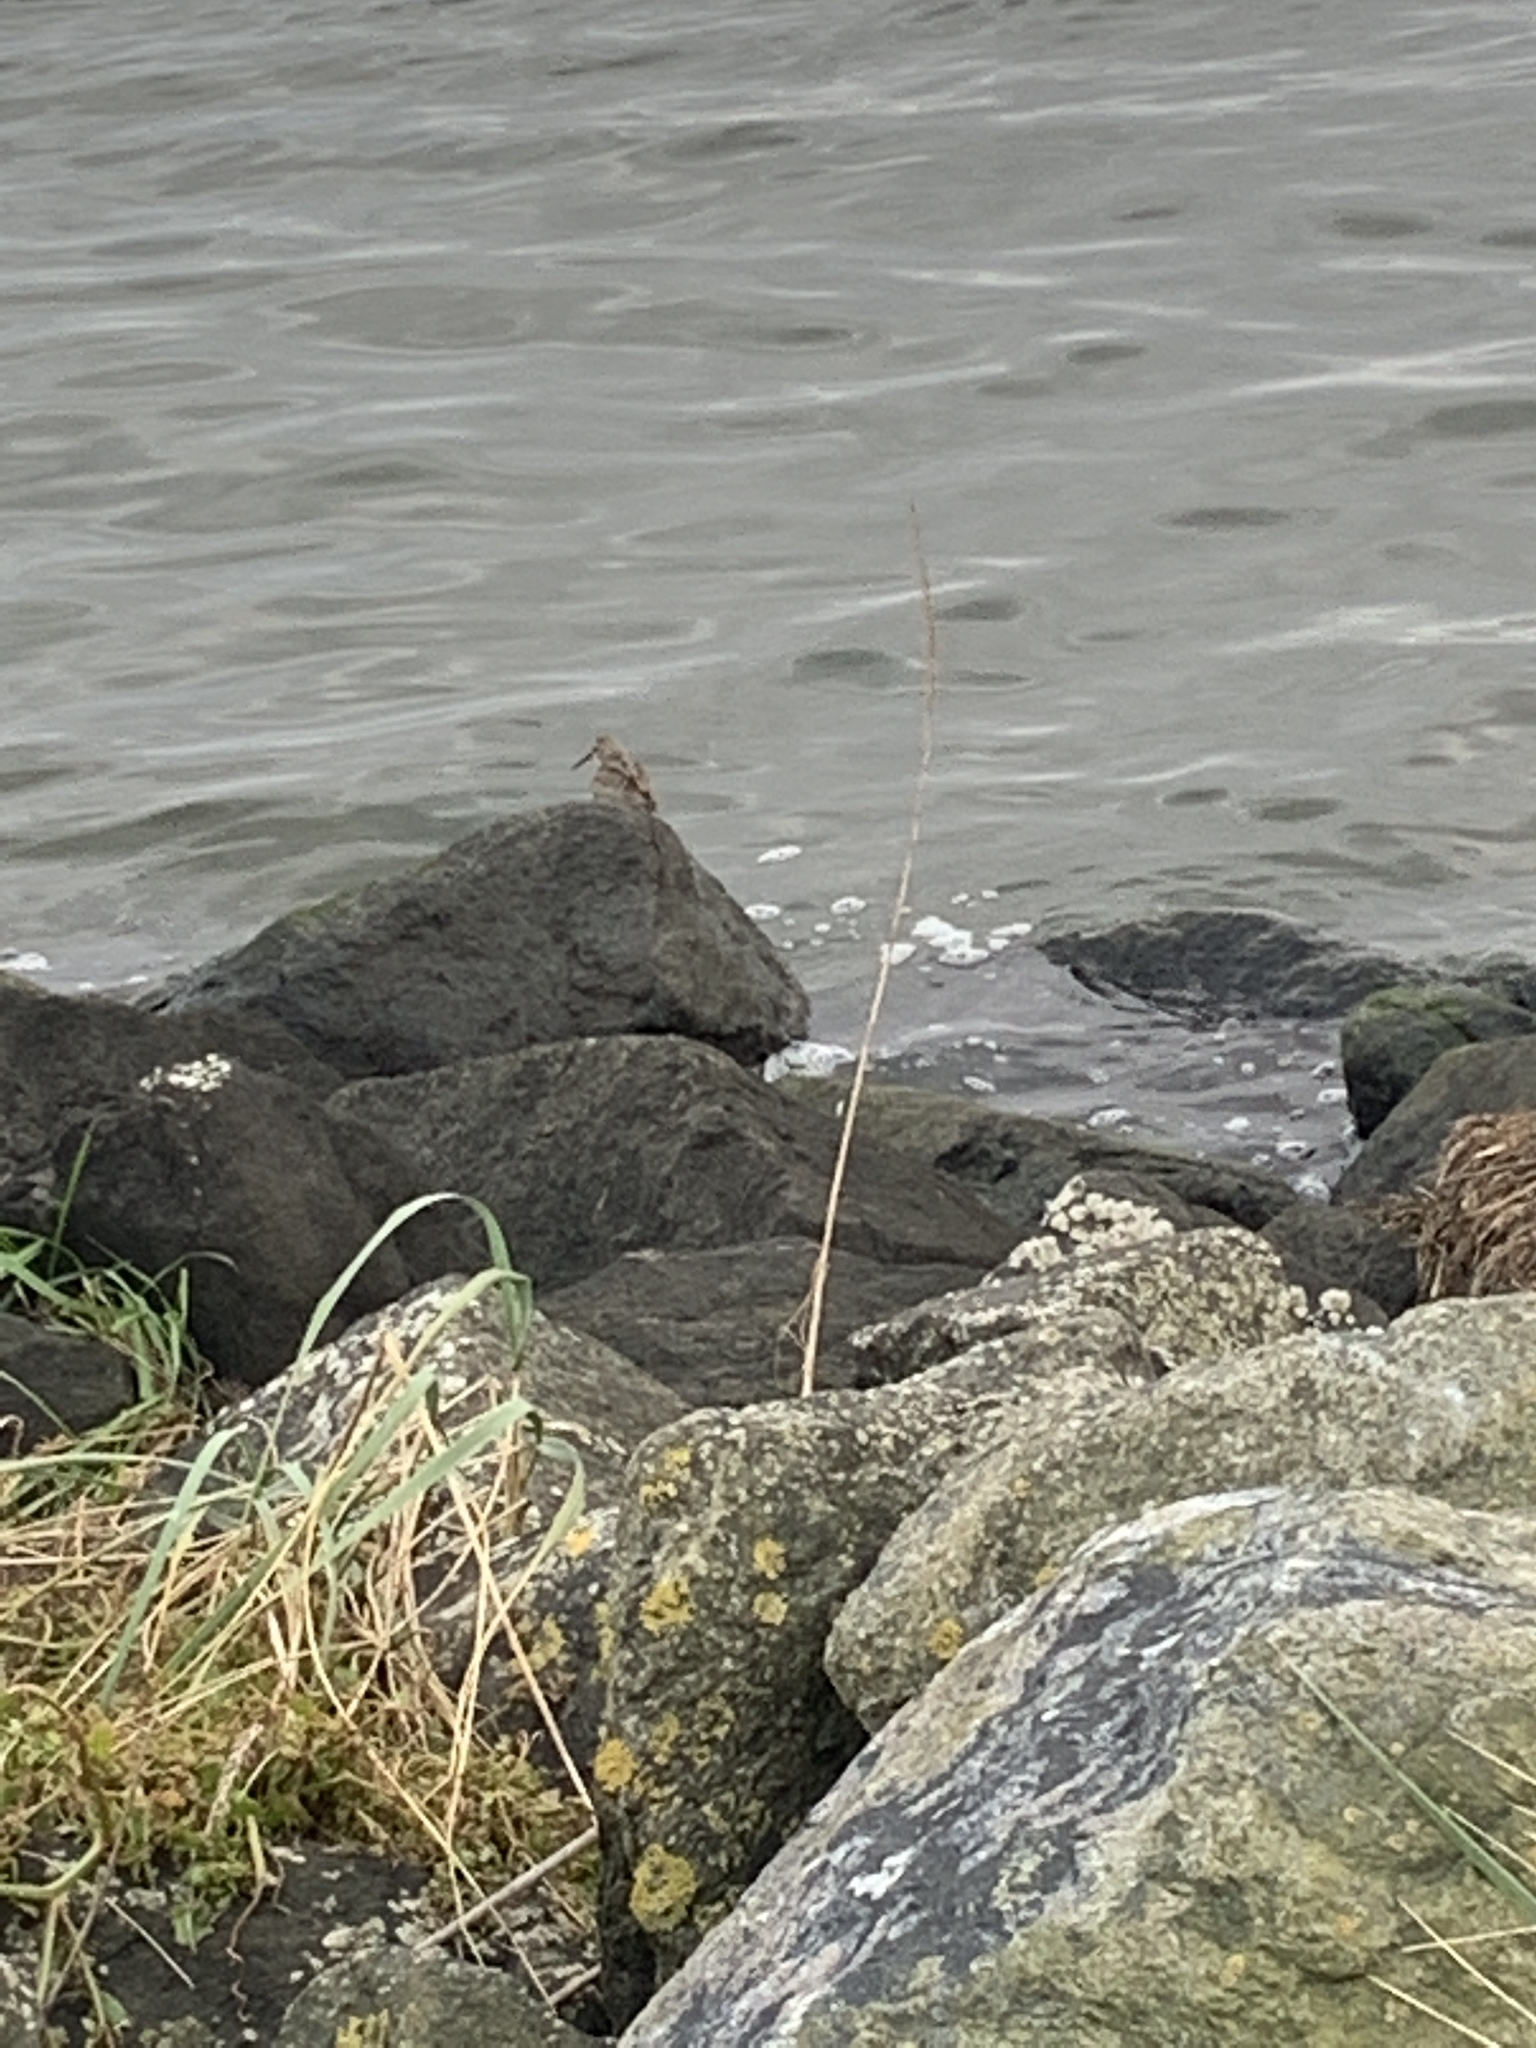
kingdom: Animalia
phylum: Chordata
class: Aves
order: Charadriiformes
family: Scolopacidae
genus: Calidris
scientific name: Calidris alpina
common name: Dunlin
